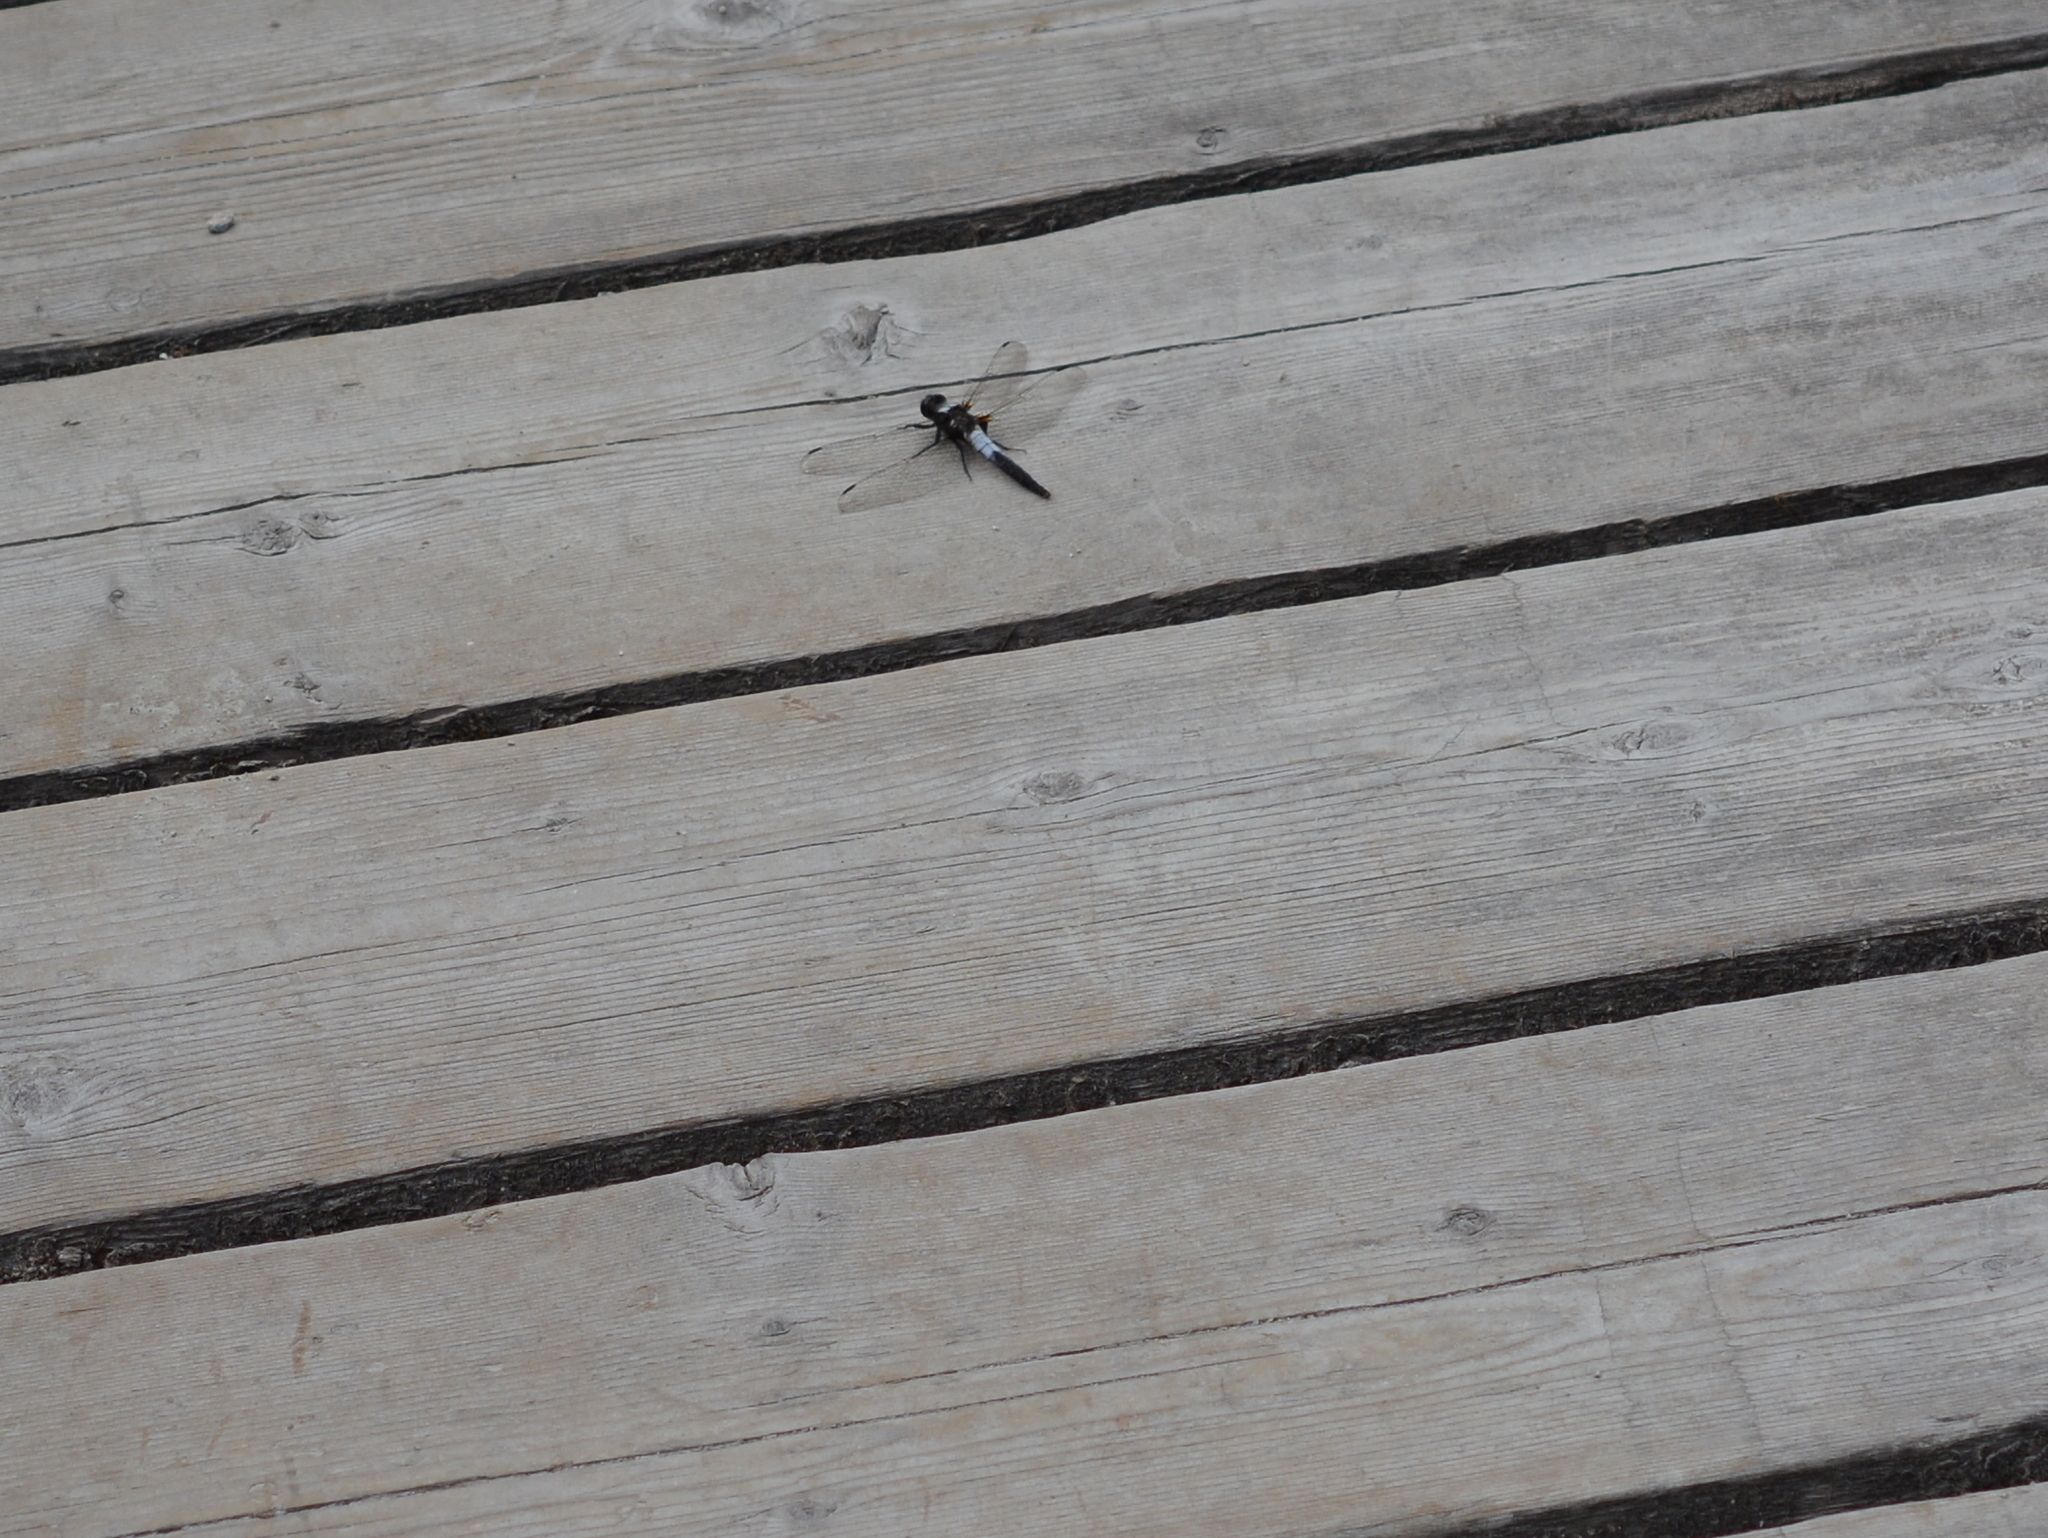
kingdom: Animalia
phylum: Arthropoda
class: Insecta
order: Odonata
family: Libellulidae
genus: Ladona
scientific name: Ladona julia
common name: Chalk-fronted corporal
